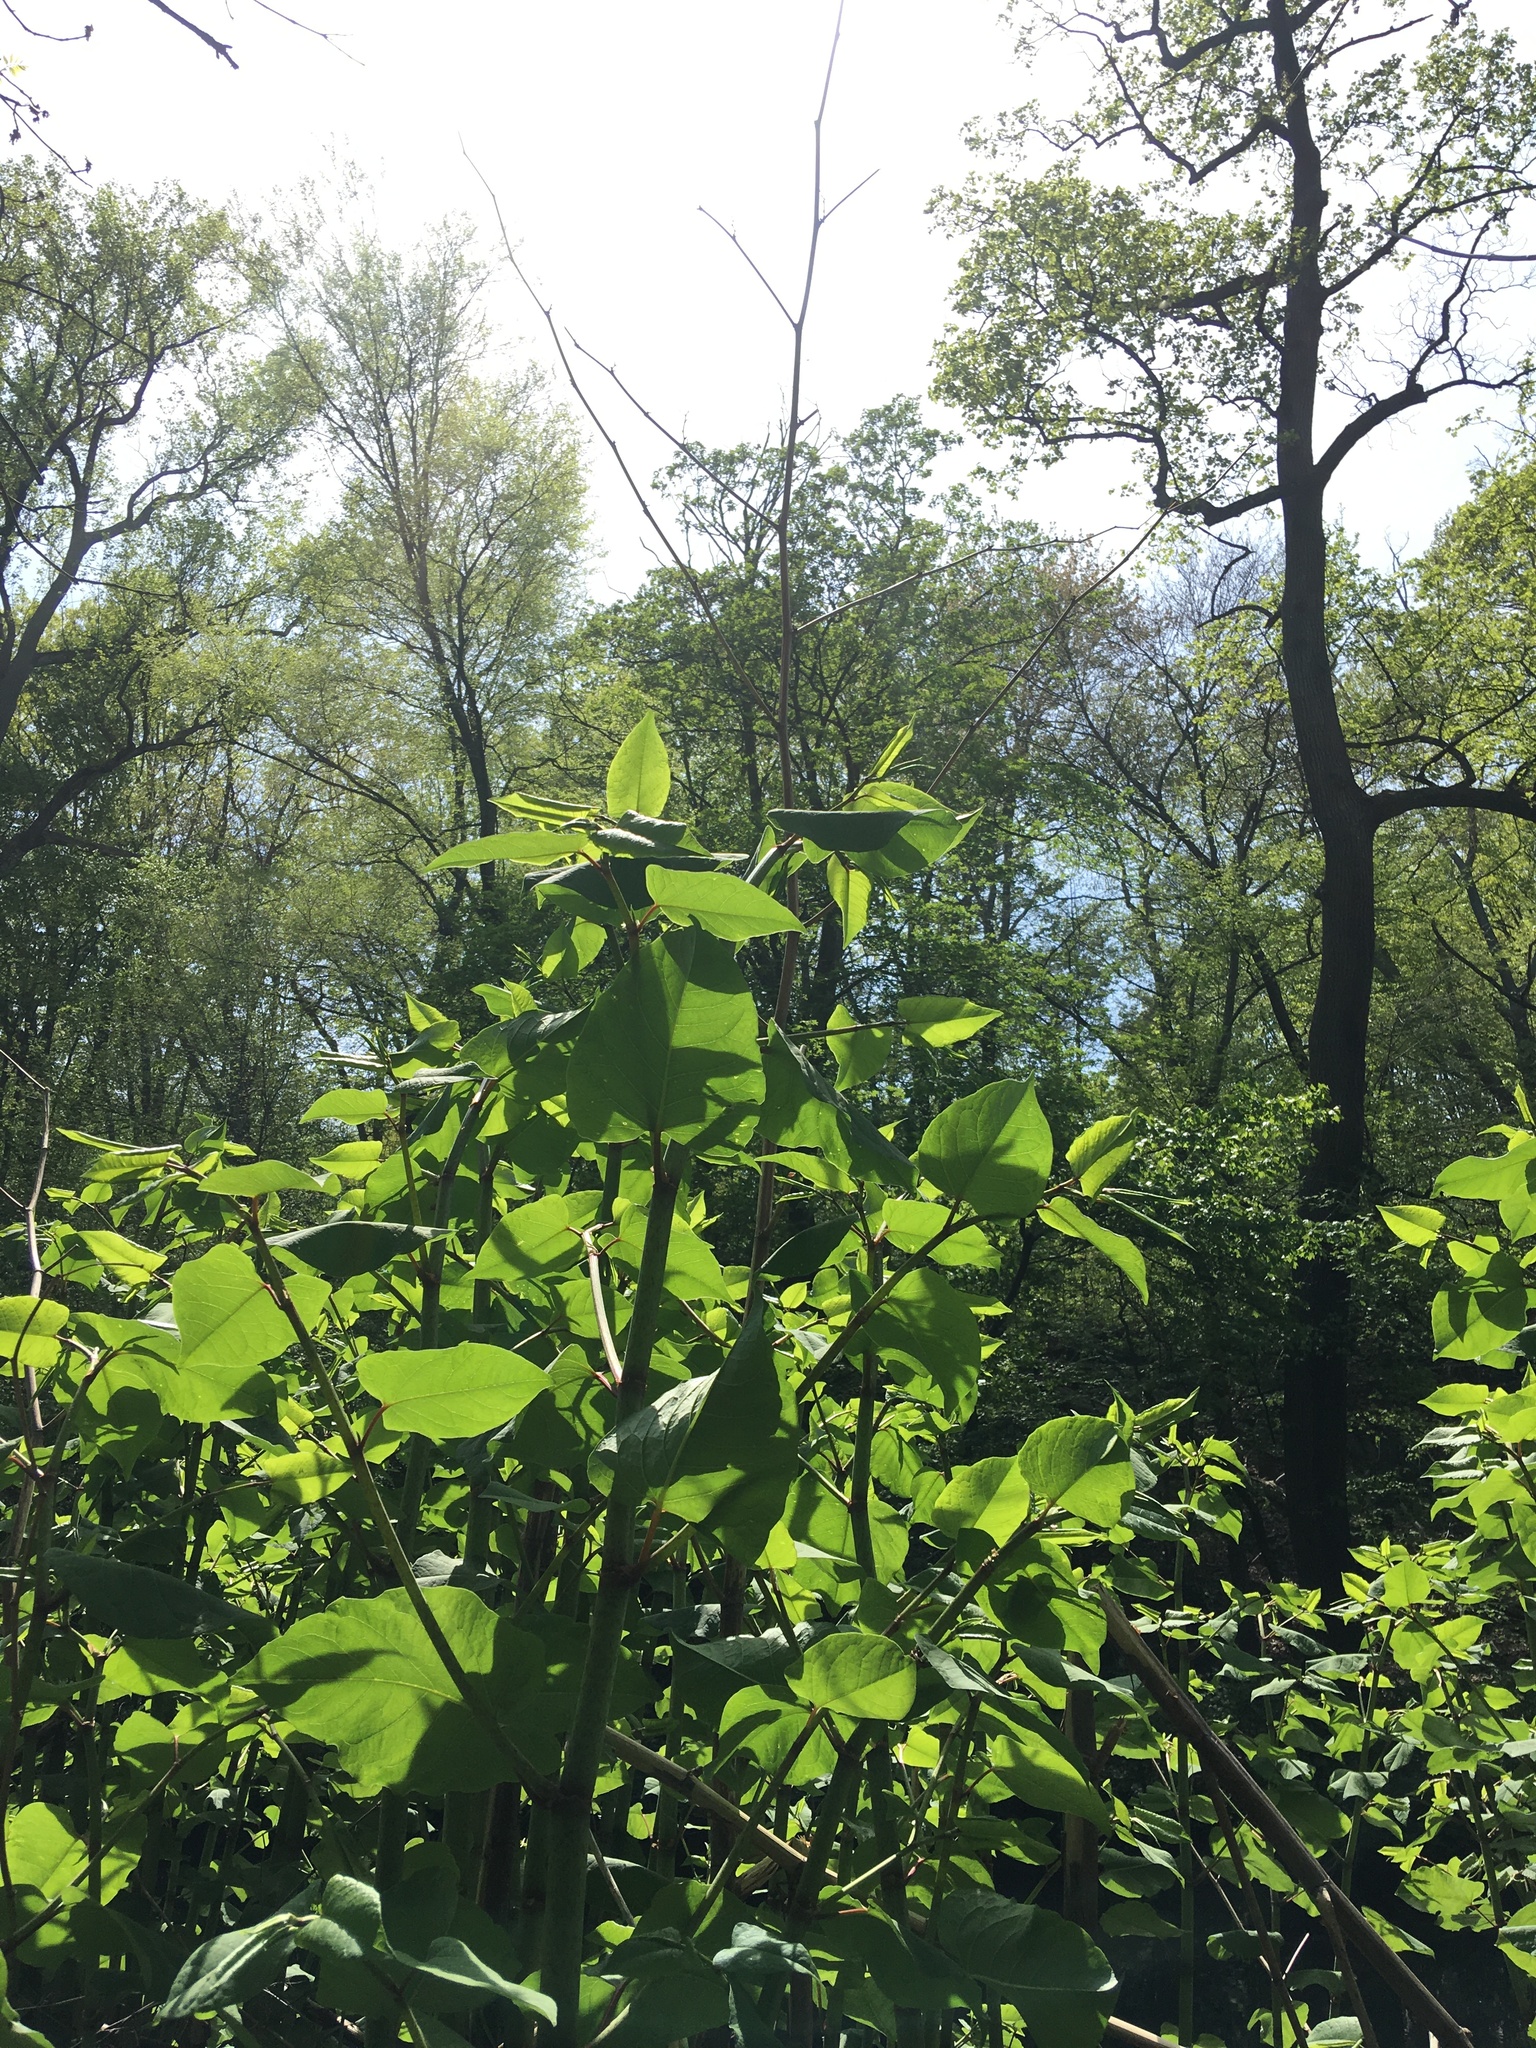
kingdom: Plantae
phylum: Tracheophyta
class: Magnoliopsida
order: Caryophyllales
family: Polygonaceae
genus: Reynoutria
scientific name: Reynoutria japonica
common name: Japanese knotweed
